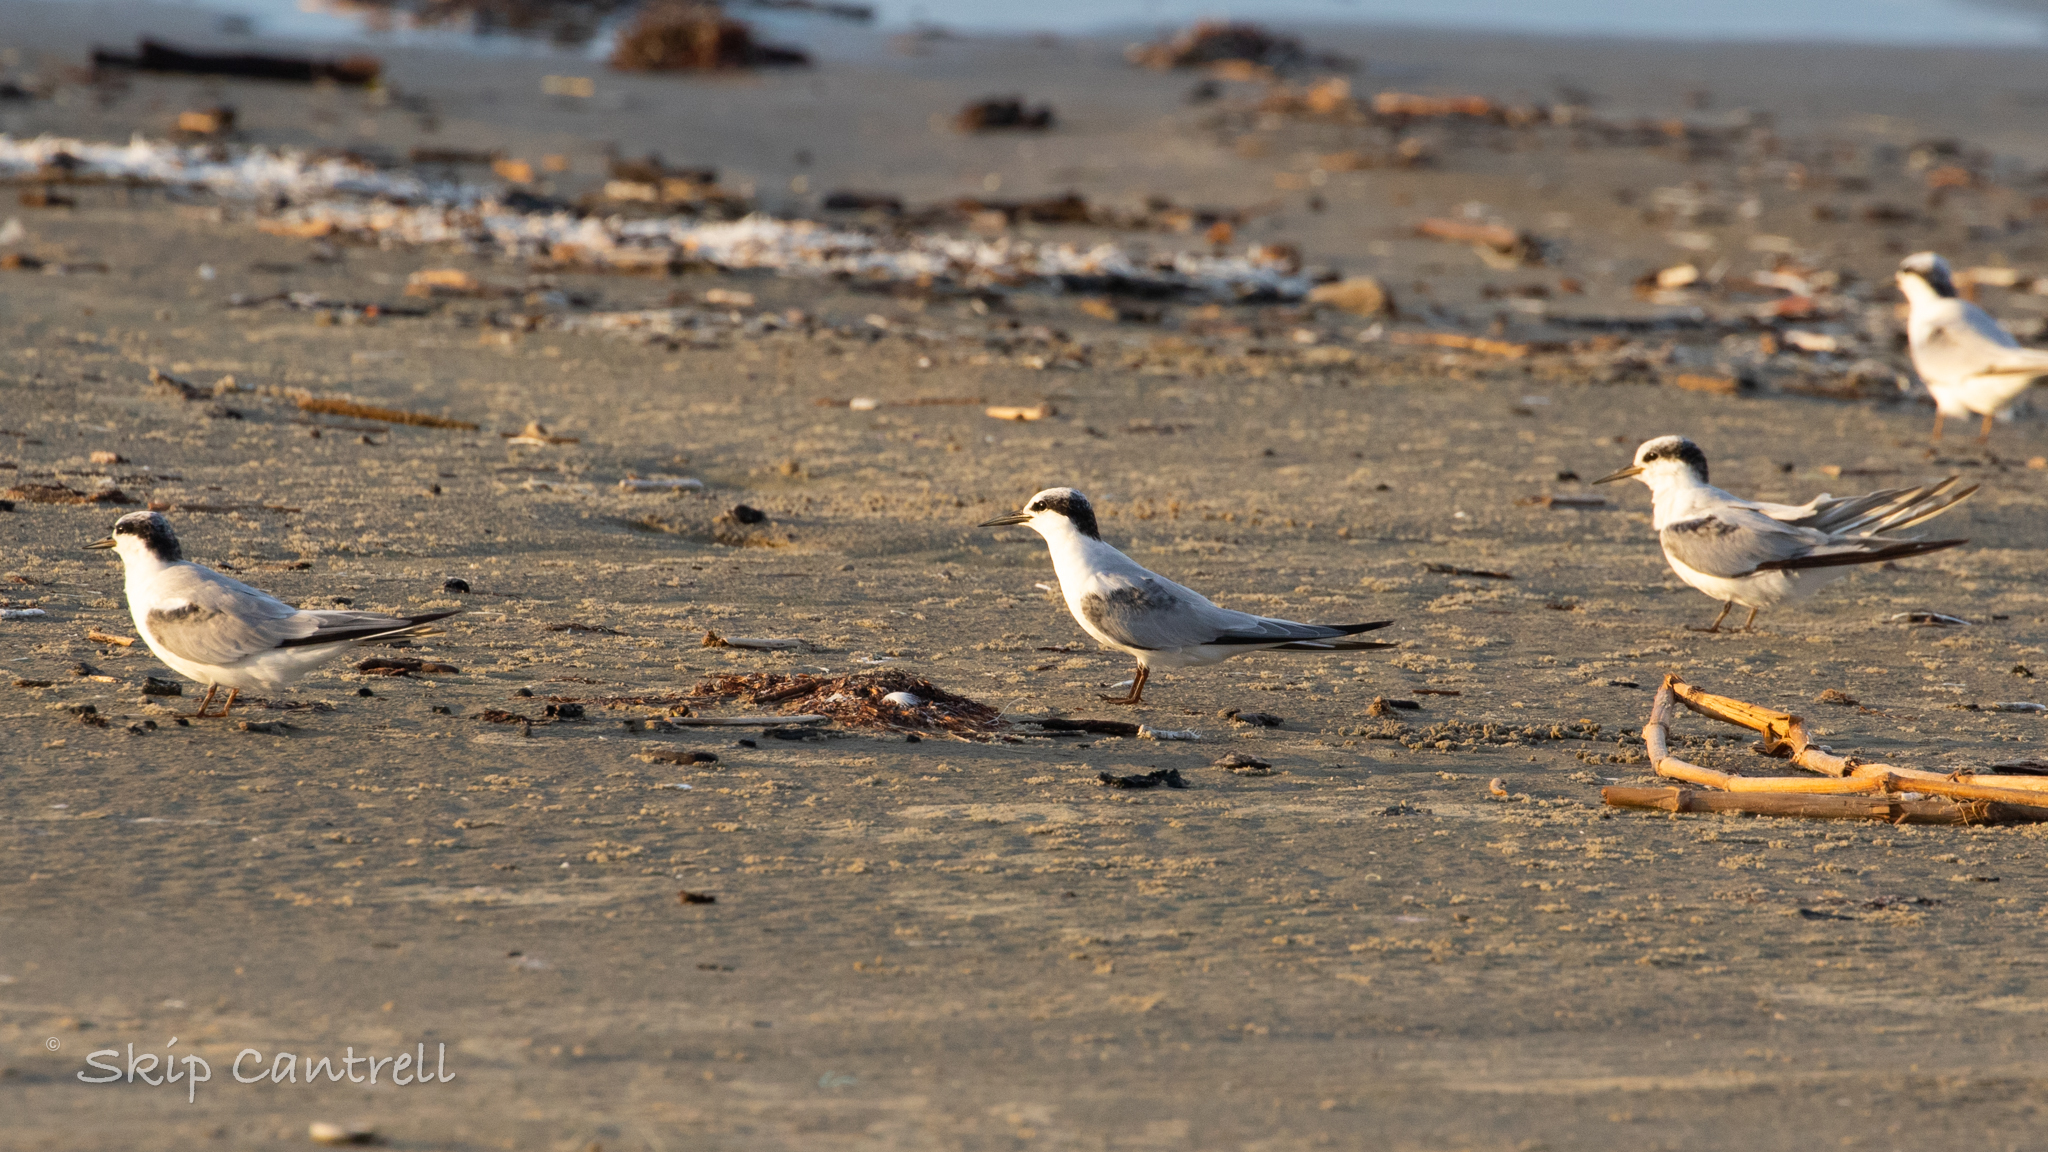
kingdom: Animalia
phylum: Chordata
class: Aves
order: Charadriiformes
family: Laridae
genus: Sternula
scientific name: Sternula antillarum
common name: Least tern
